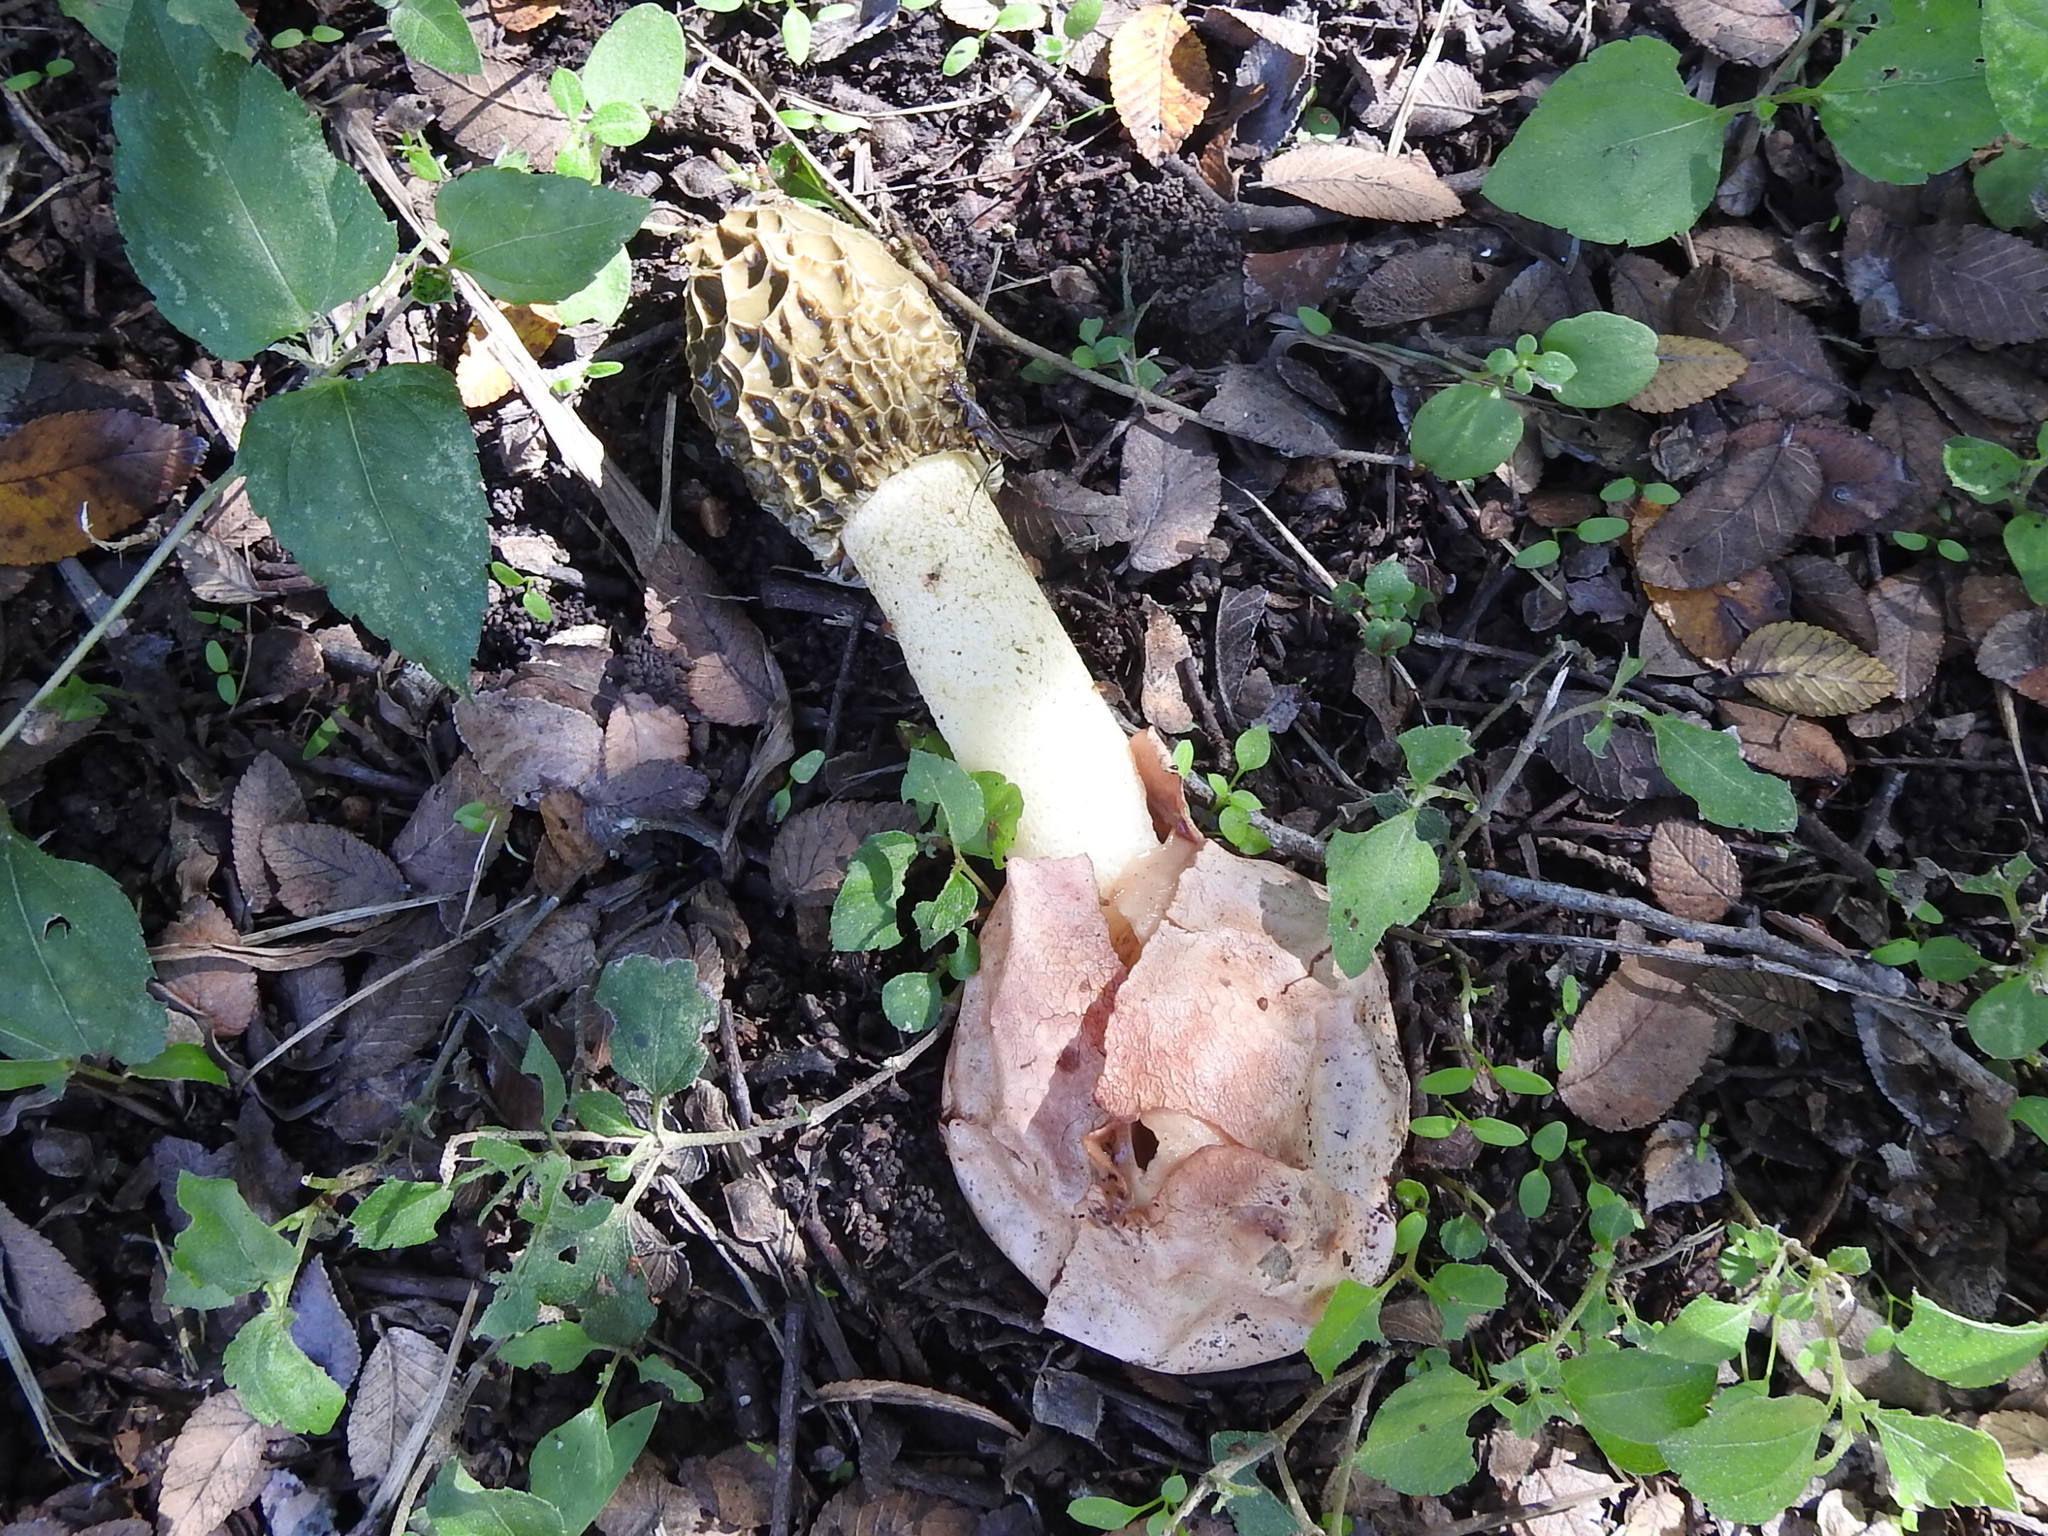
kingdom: Fungi
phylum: Basidiomycota
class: Agaricomycetes
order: Phallales
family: Phallaceae
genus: Phallus
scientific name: Phallus hadriani
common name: Sand stinkhorn
